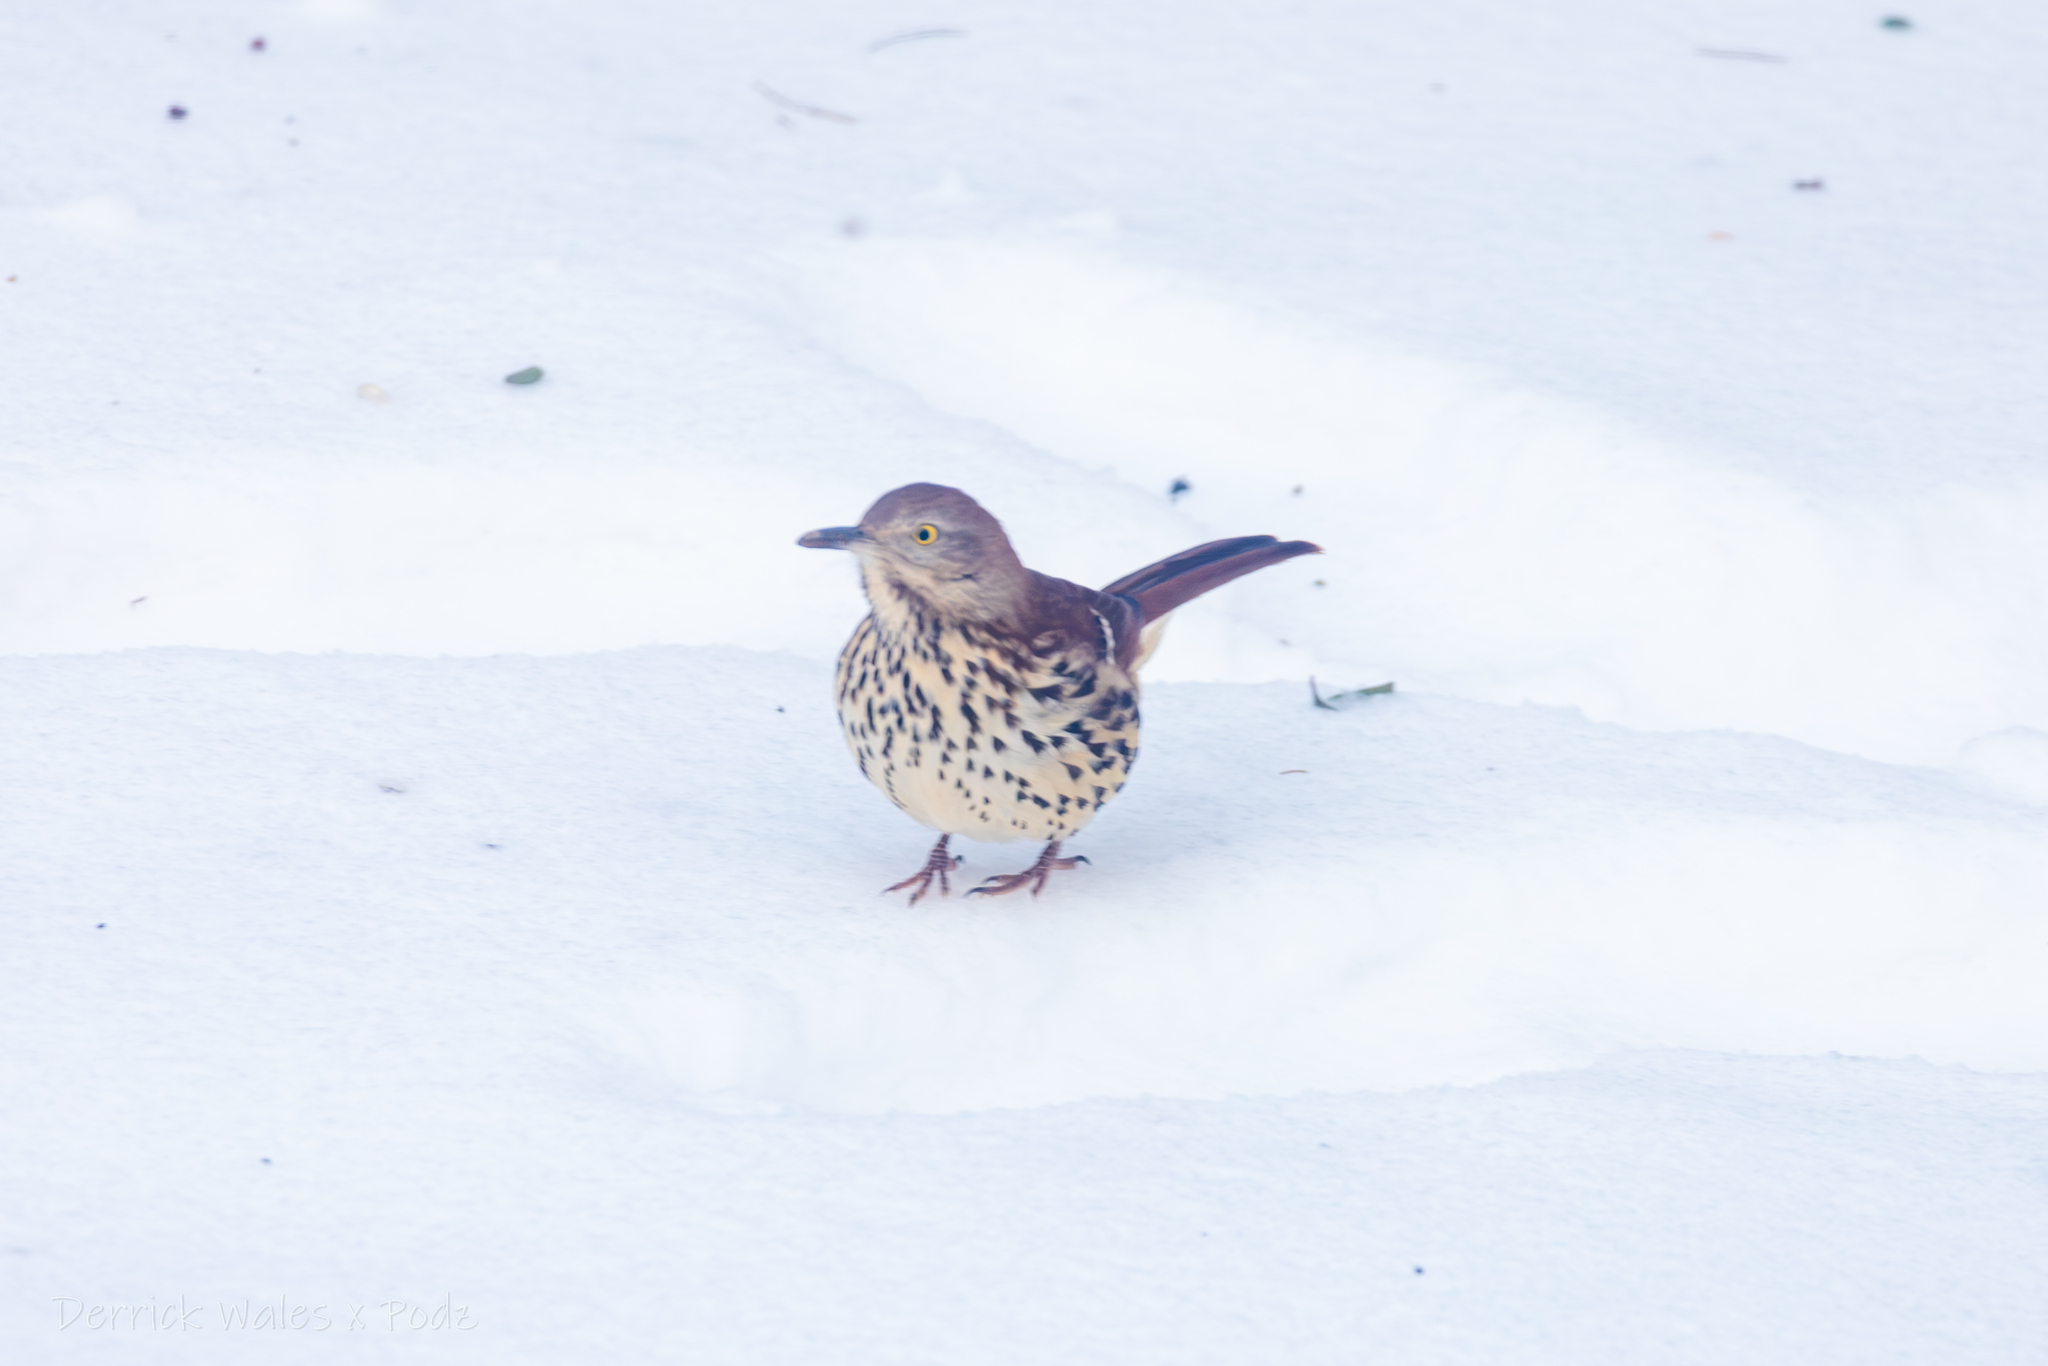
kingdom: Animalia
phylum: Chordata
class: Aves
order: Passeriformes
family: Mimidae
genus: Toxostoma
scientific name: Toxostoma rufum
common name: Brown thrasher
